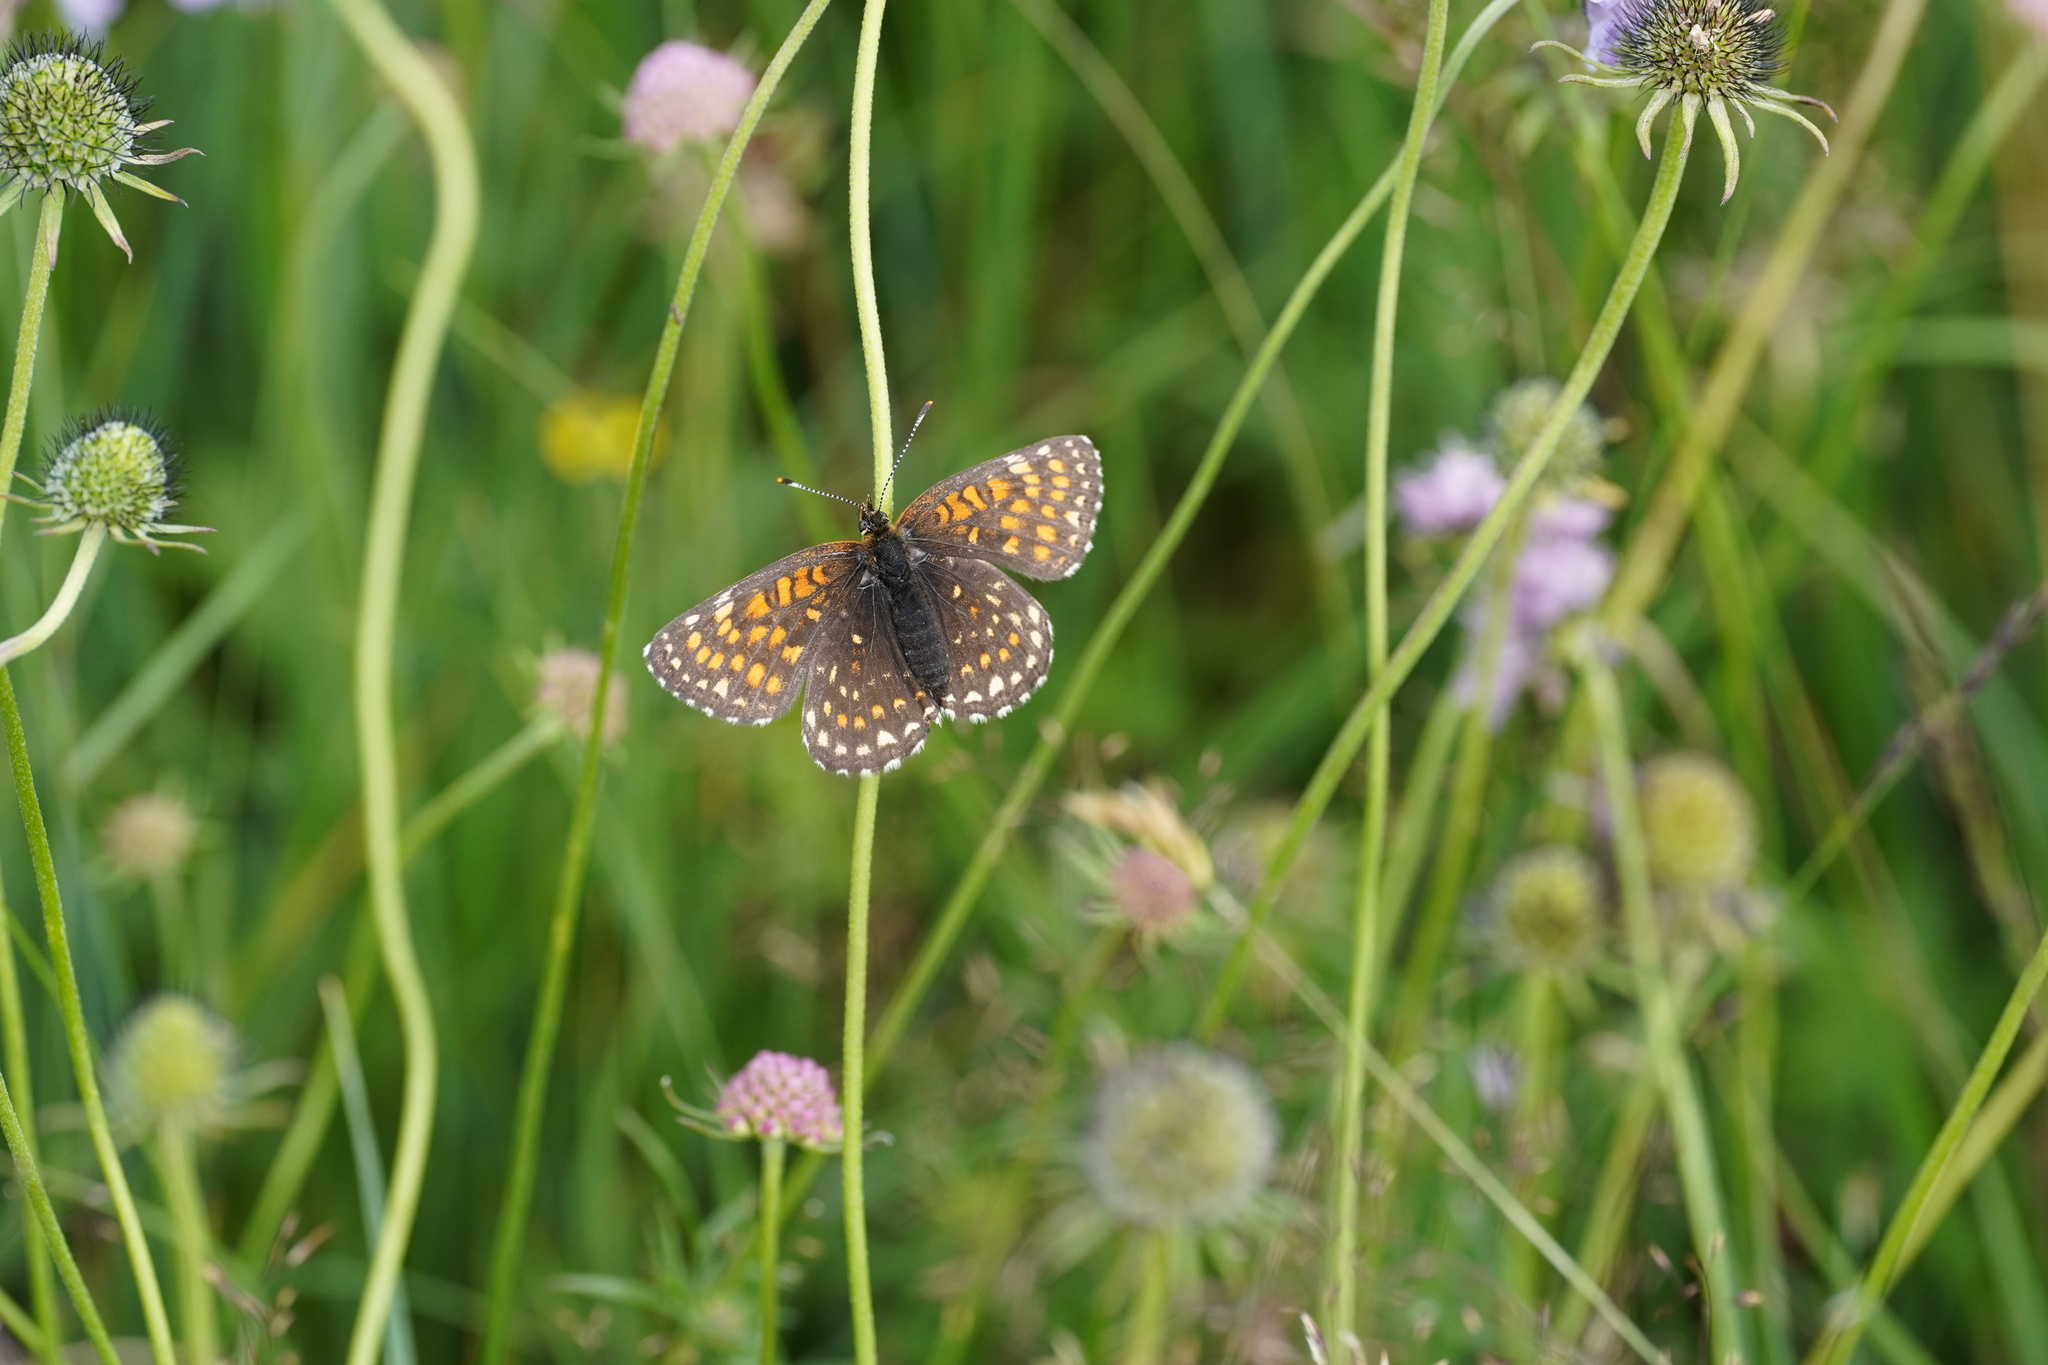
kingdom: Animalia
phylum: Arthropoda
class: Insecta
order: Lepidoptera
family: Nymphalidae
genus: Melitaea
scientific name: Melitaea diamina
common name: False heath fritillary
